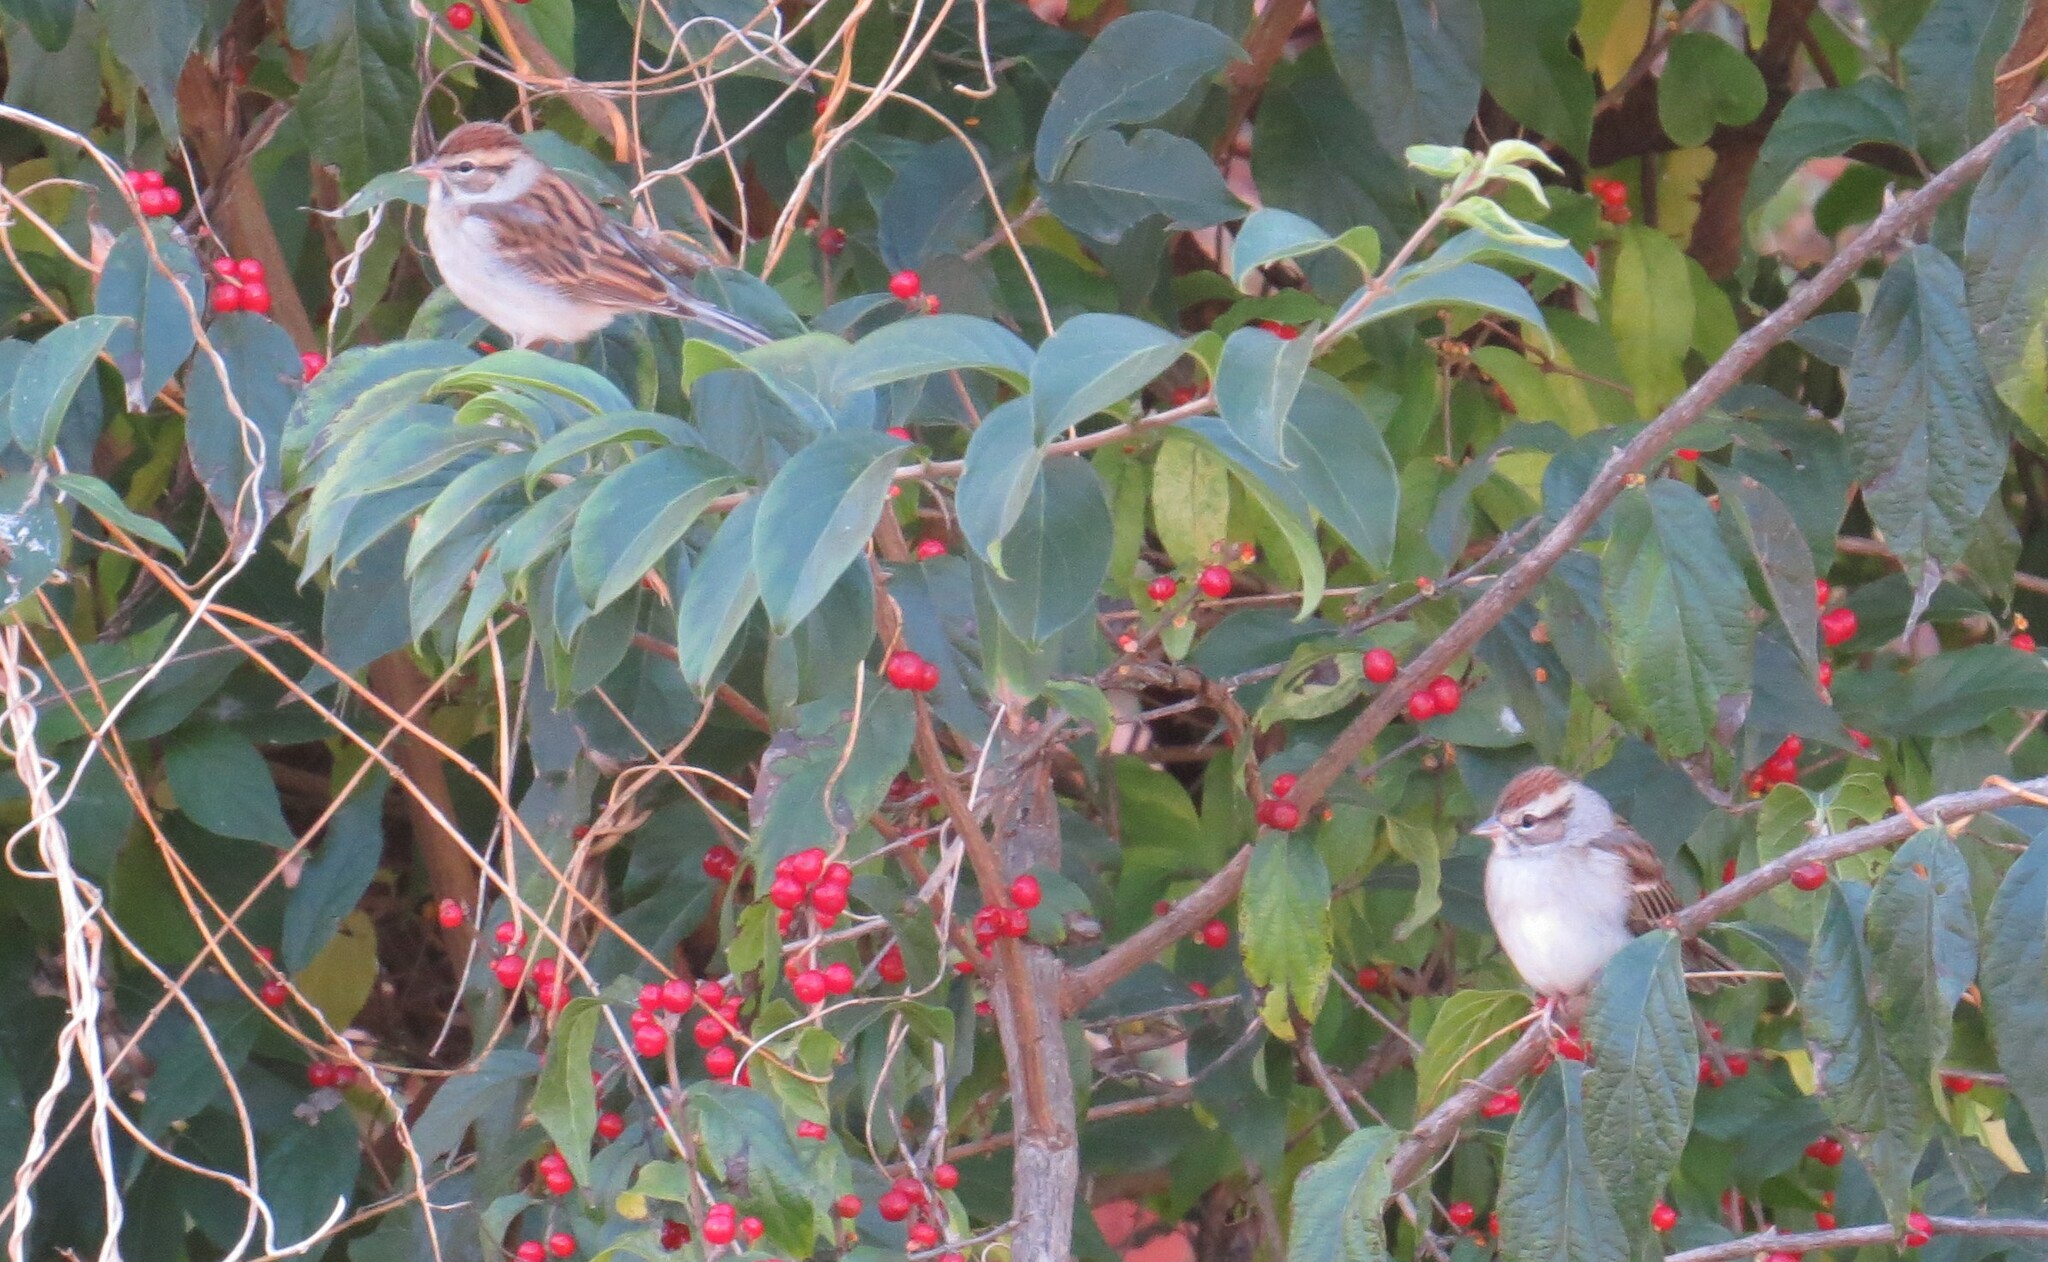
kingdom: Animalia
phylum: Chordata
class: Aves
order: Passeriformes
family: Passerellidae
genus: Spizella
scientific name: Spizella passerina
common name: Chipping sparrow
